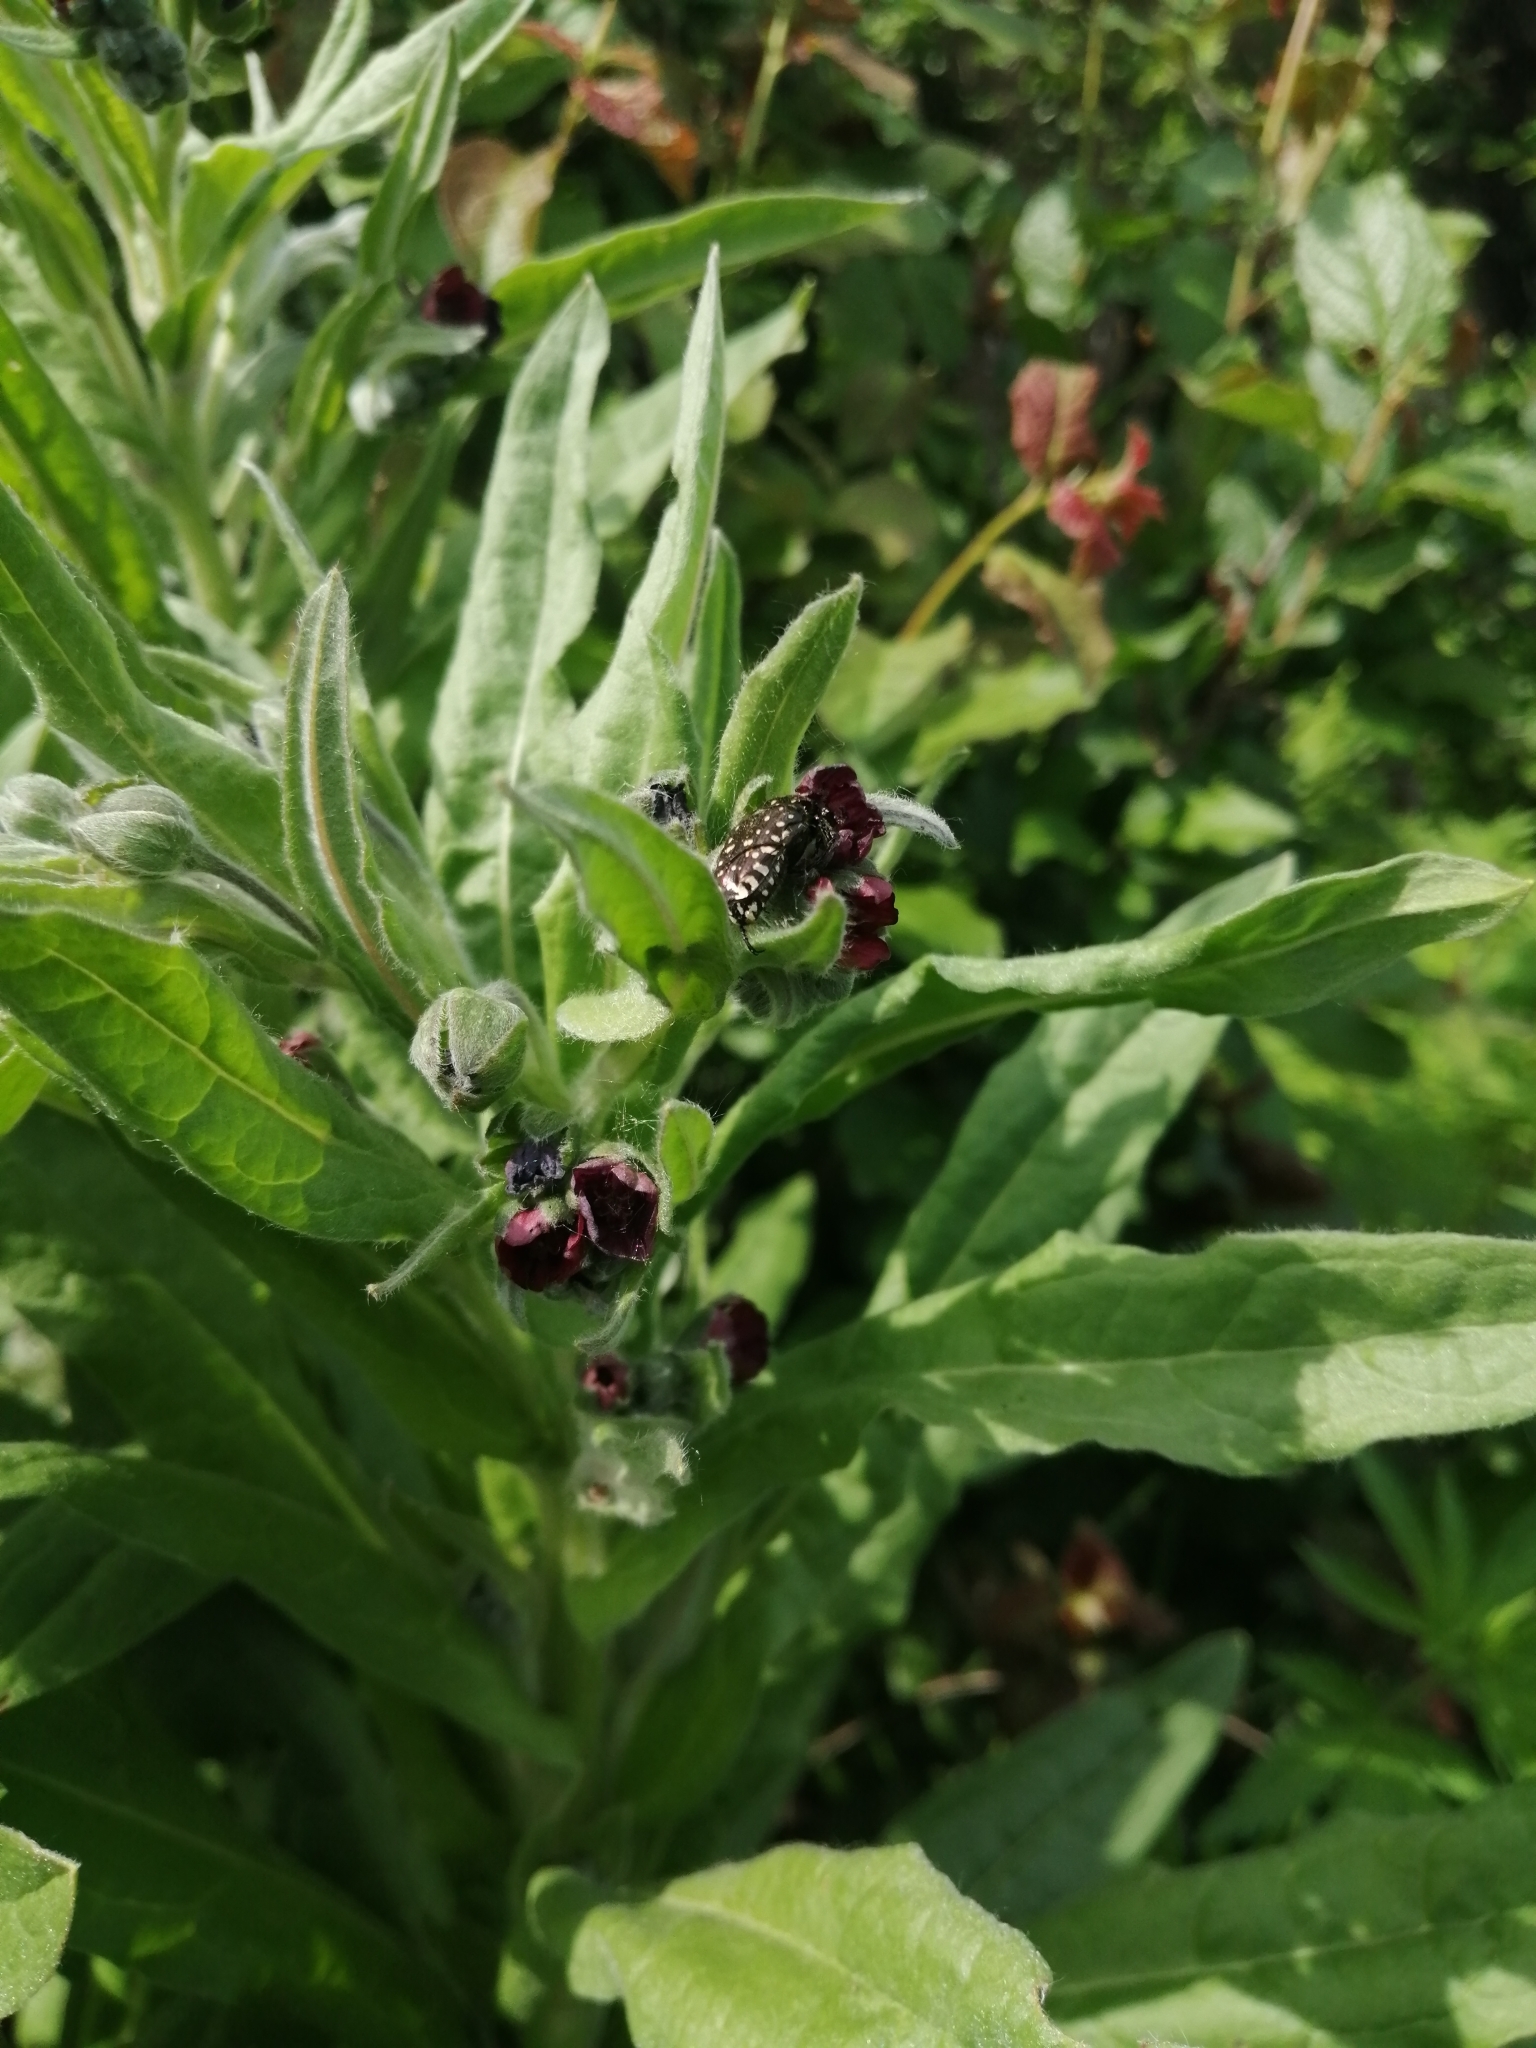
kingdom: Plantae
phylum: Tracheophyta
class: Magnoliopsida
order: Boraginales
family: Boraginaceae
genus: Cynoglossum
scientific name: Cynoglossum officinale
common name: Hound's-tongue
